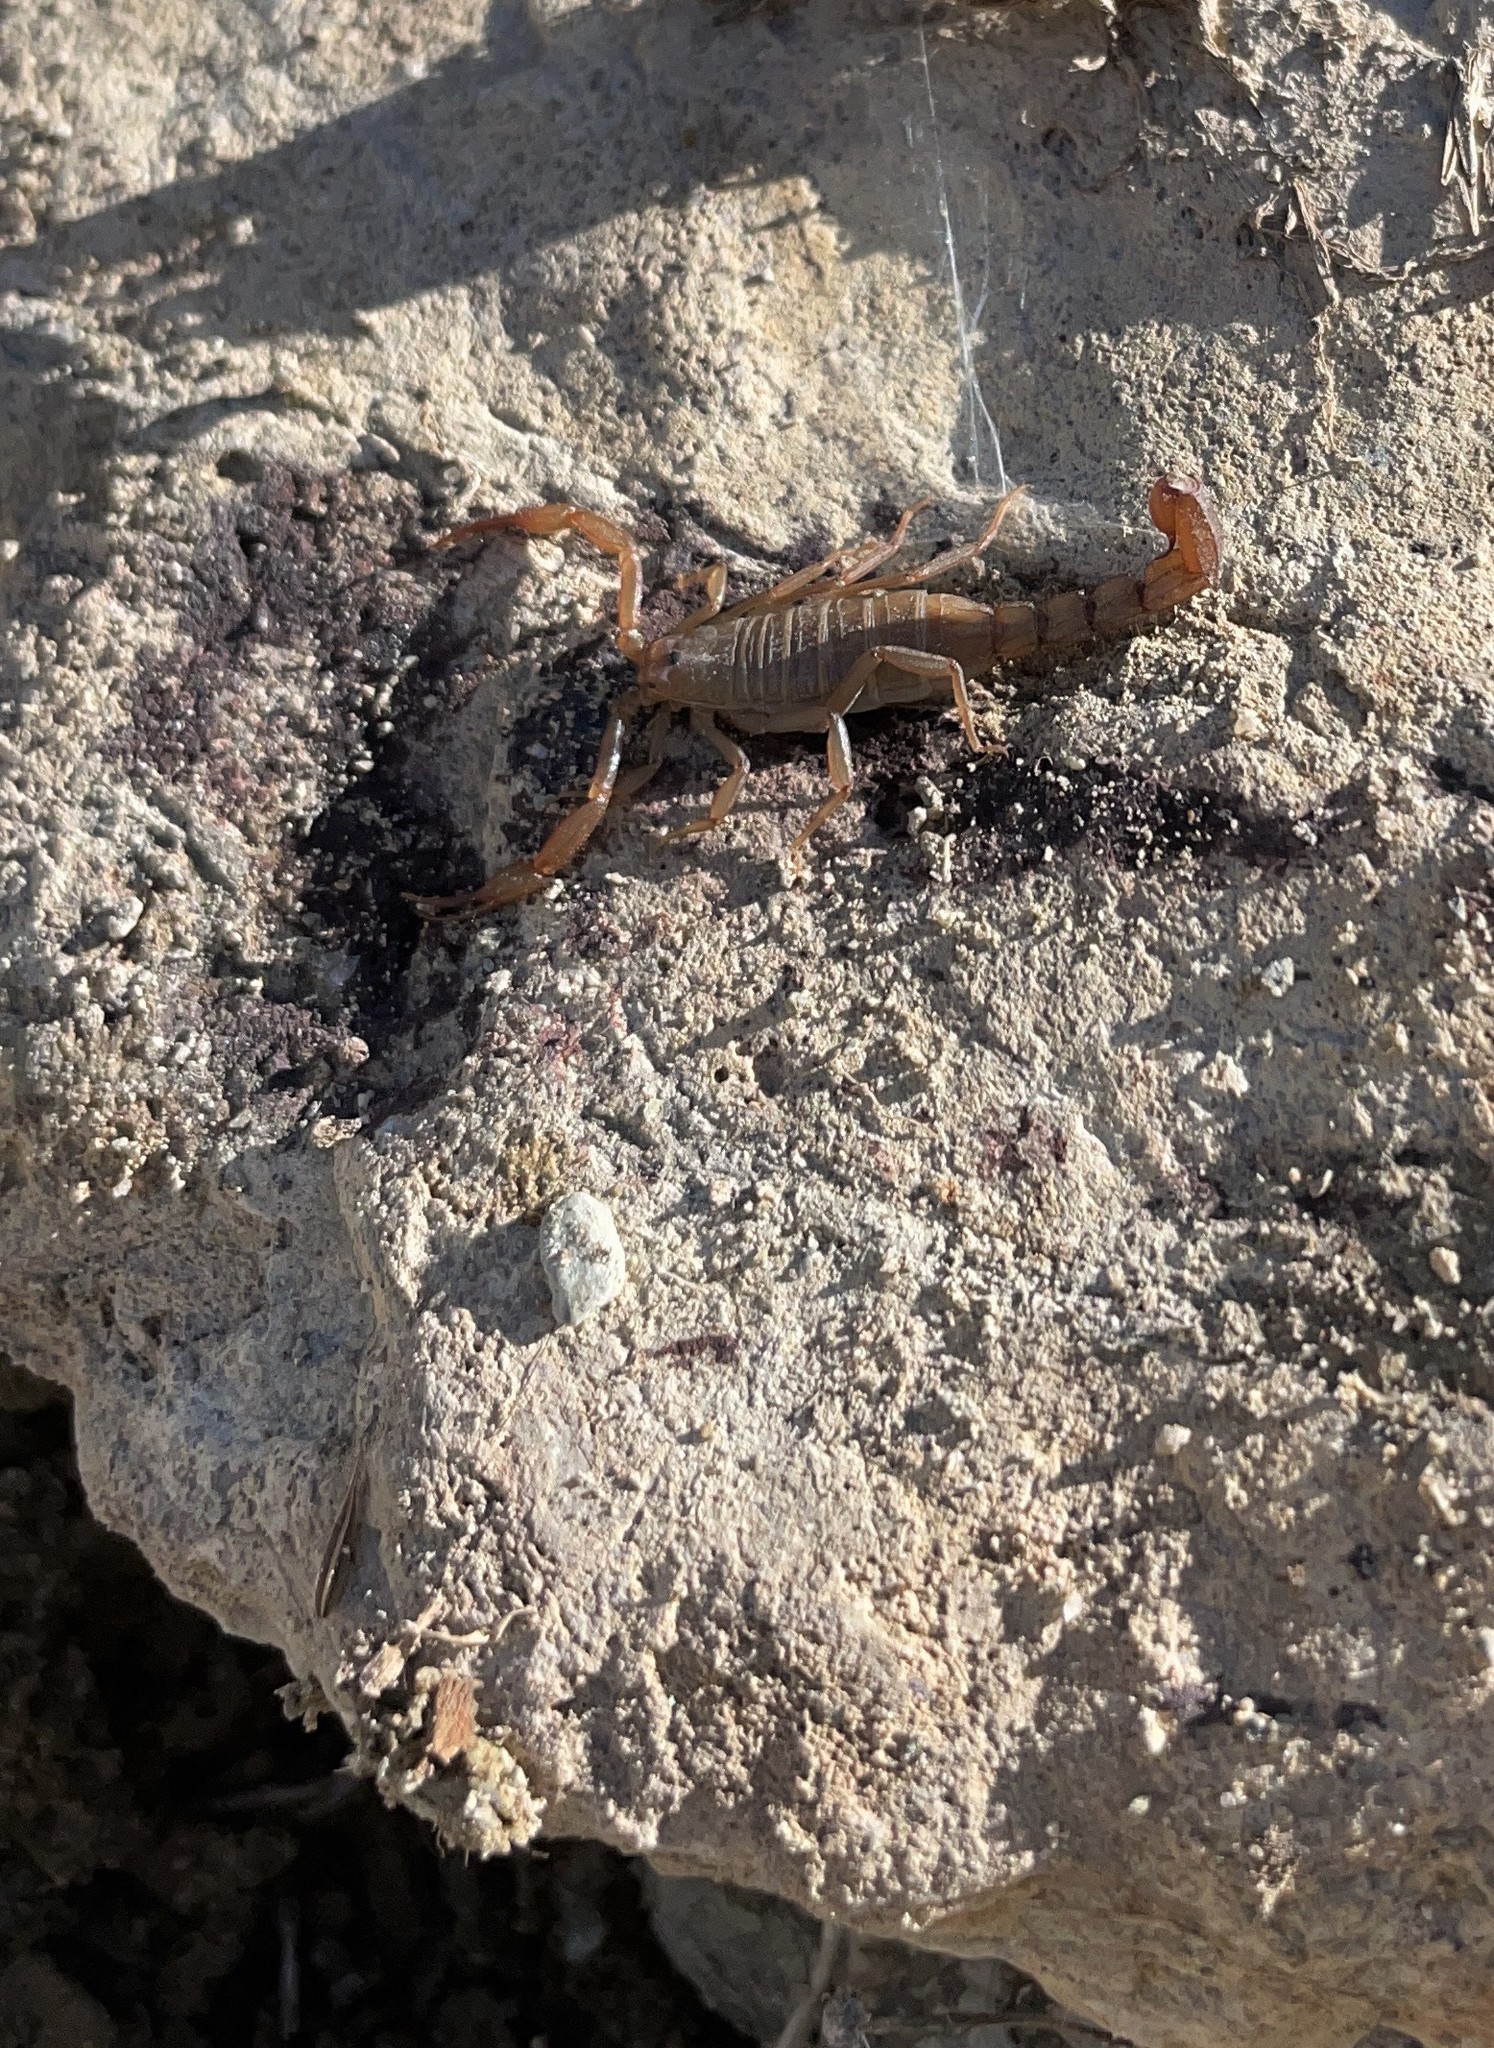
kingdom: Animalia
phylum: Arthropoda
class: Arachnida
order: Scorpiones
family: Vaejovidae
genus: Serradigitus
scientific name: Serradigitus wupatkiensis
